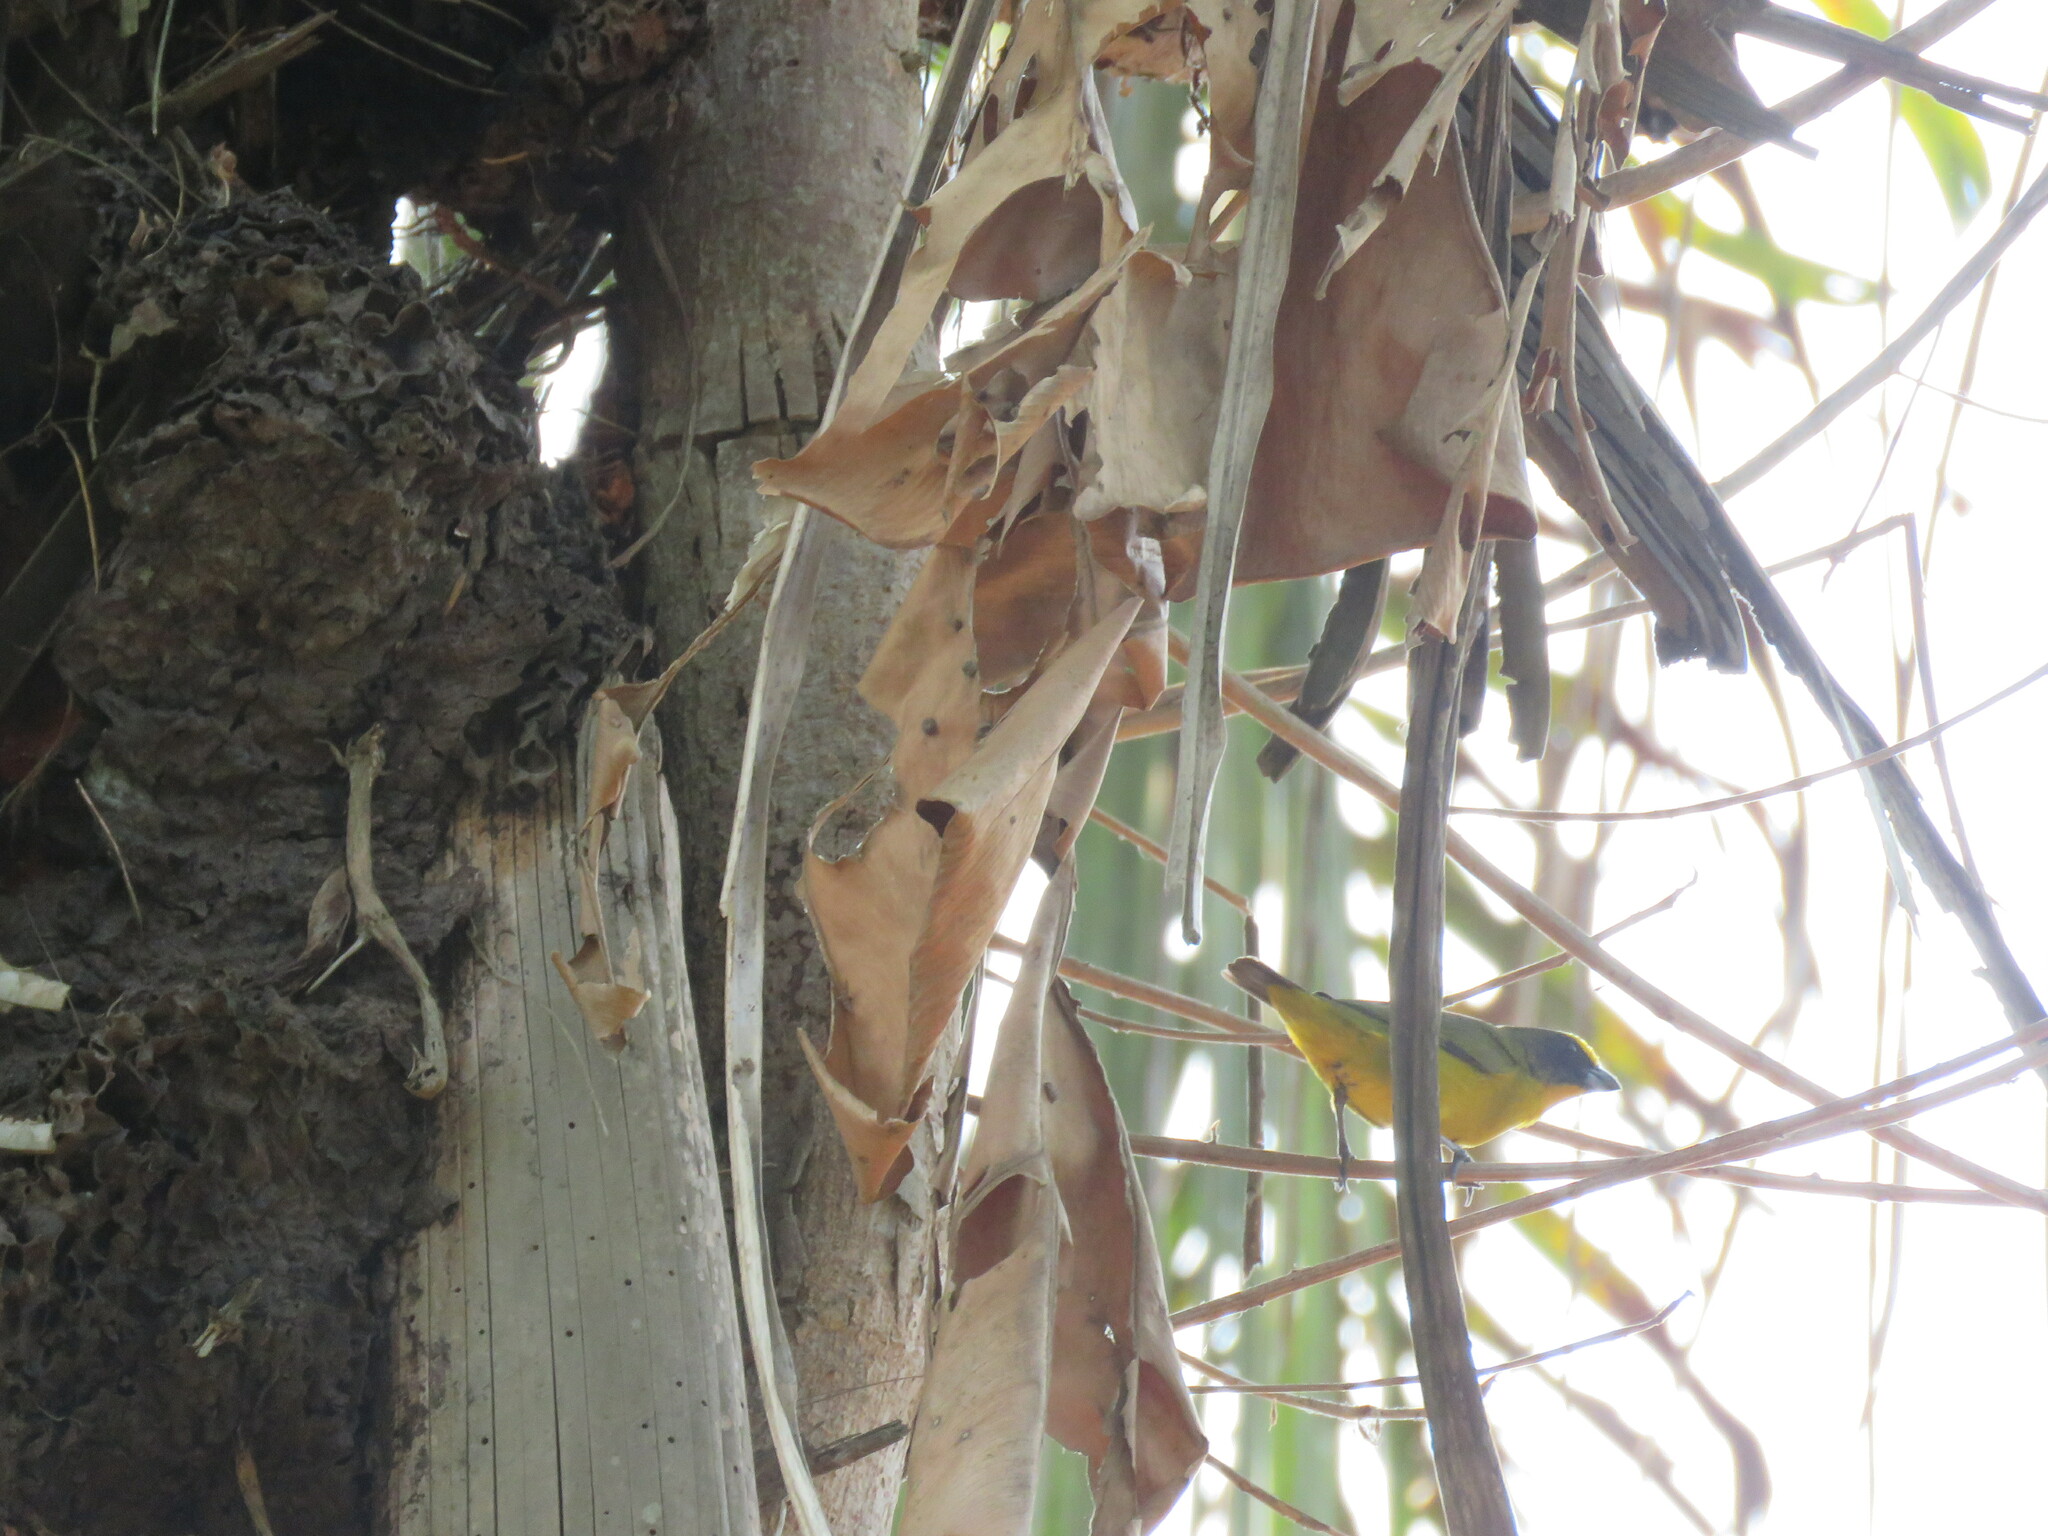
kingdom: Animalia
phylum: Chordata
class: Aves
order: Passeriformes
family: Fringillidae
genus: Euphonia
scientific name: Euphonia laniirostris
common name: Thick-billed euphonia
